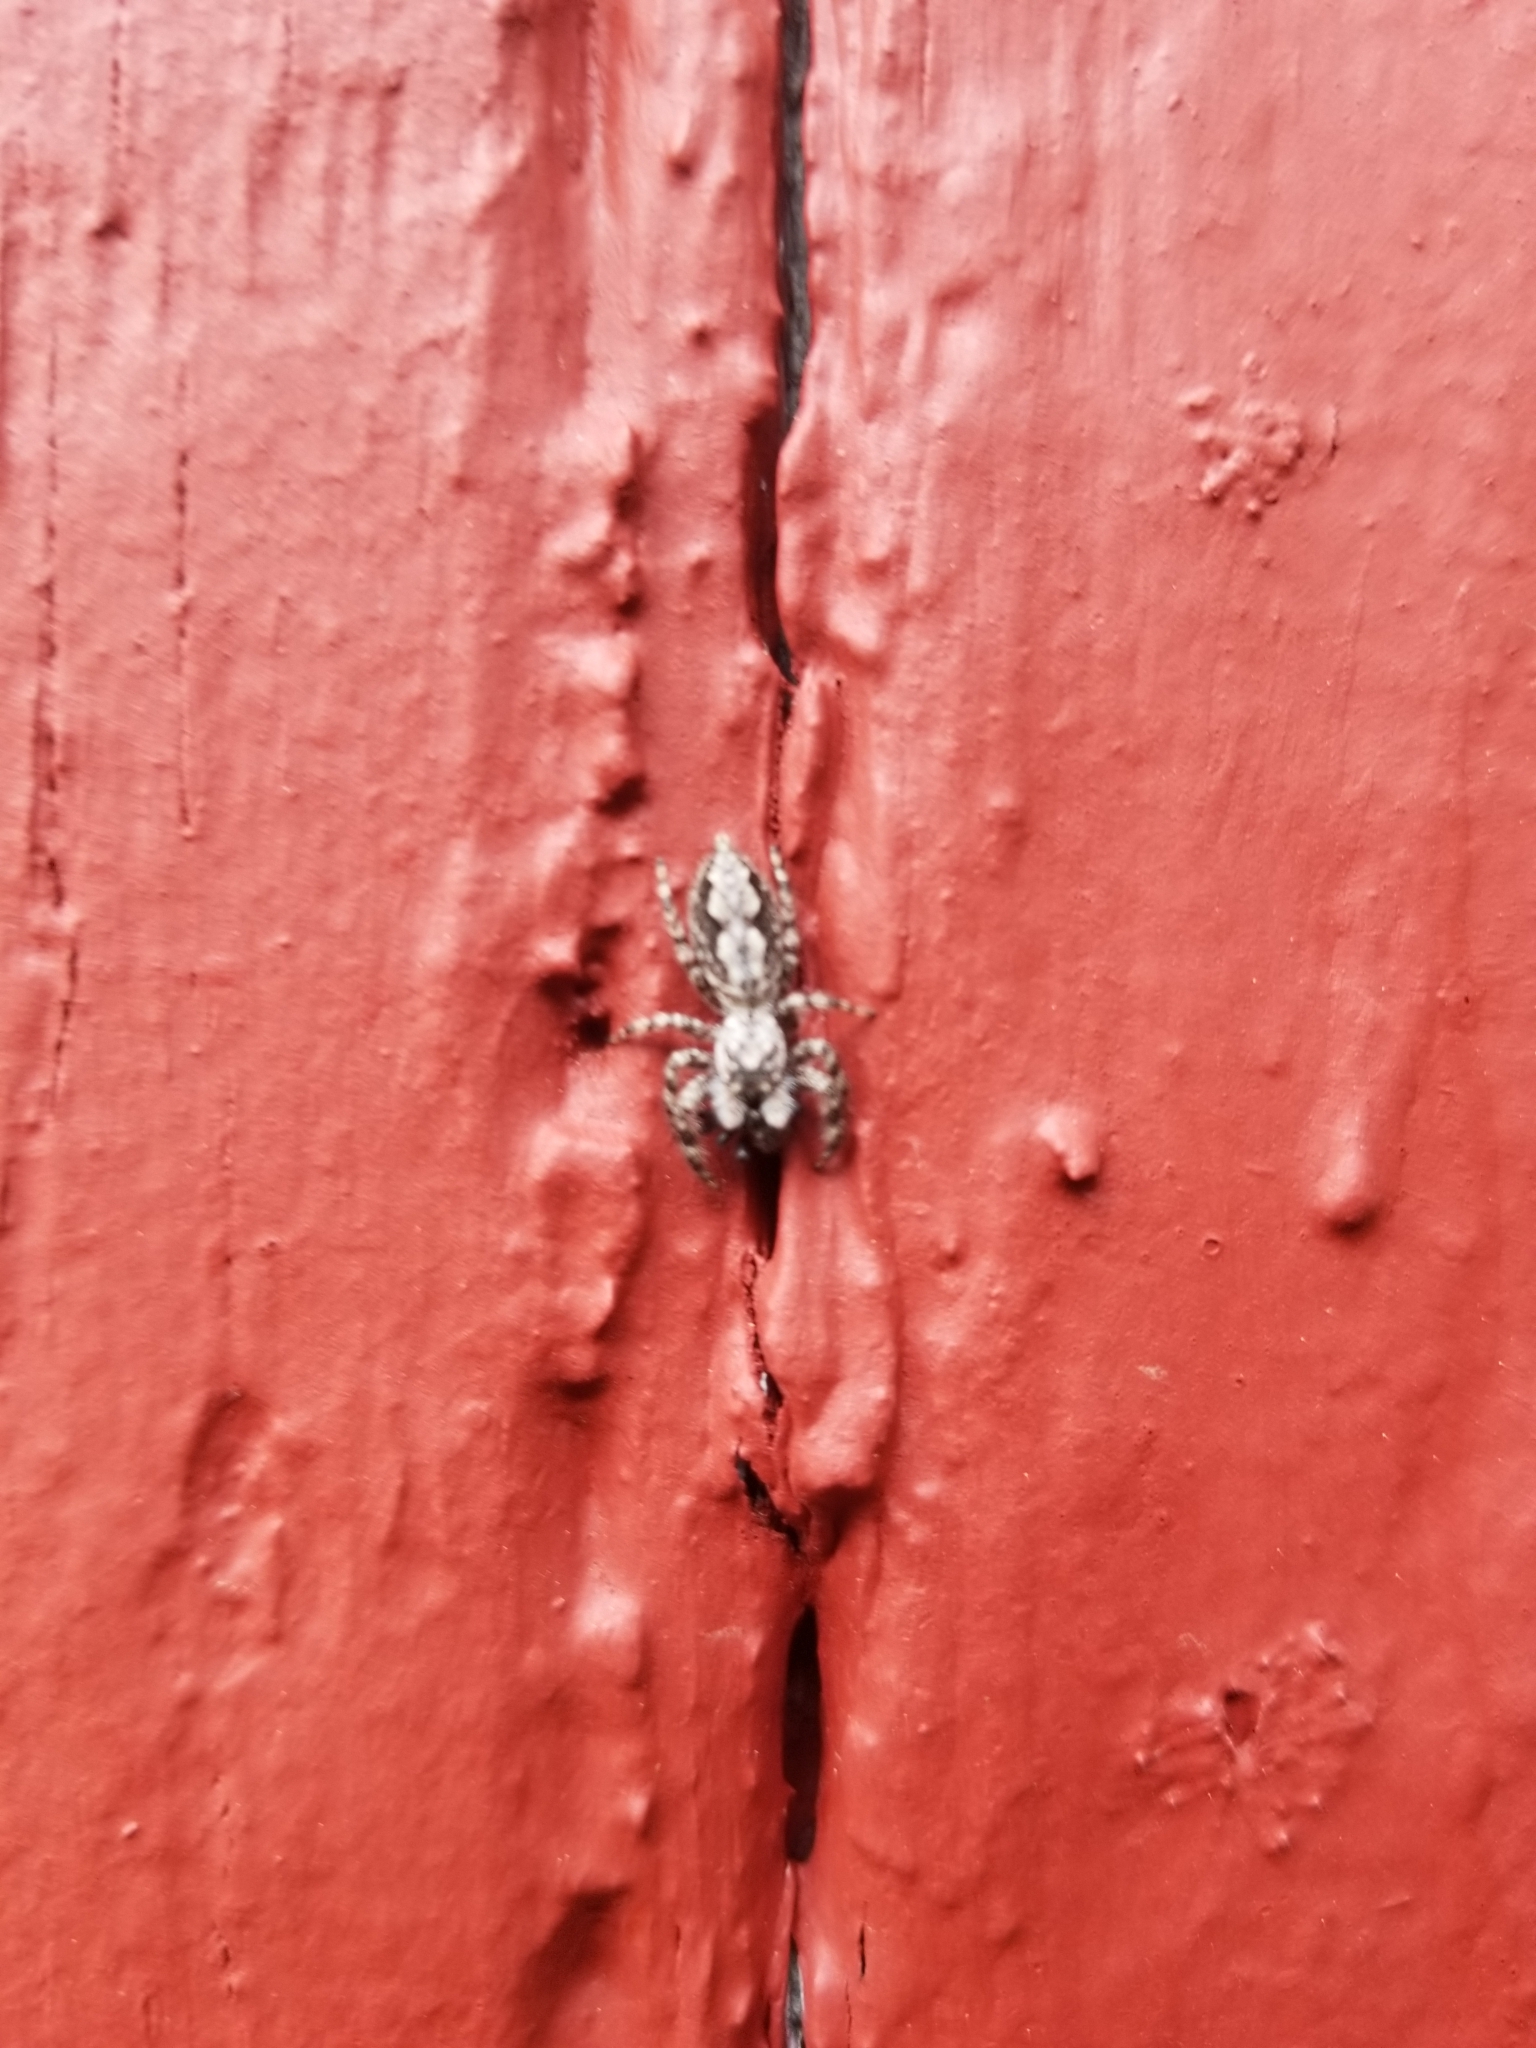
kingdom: Animalia
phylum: Arthropoda
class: Arachnida
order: Araneae
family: Salticidae
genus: Platycryptus
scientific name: Platycryptus undatus
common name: Tan jumping spider
